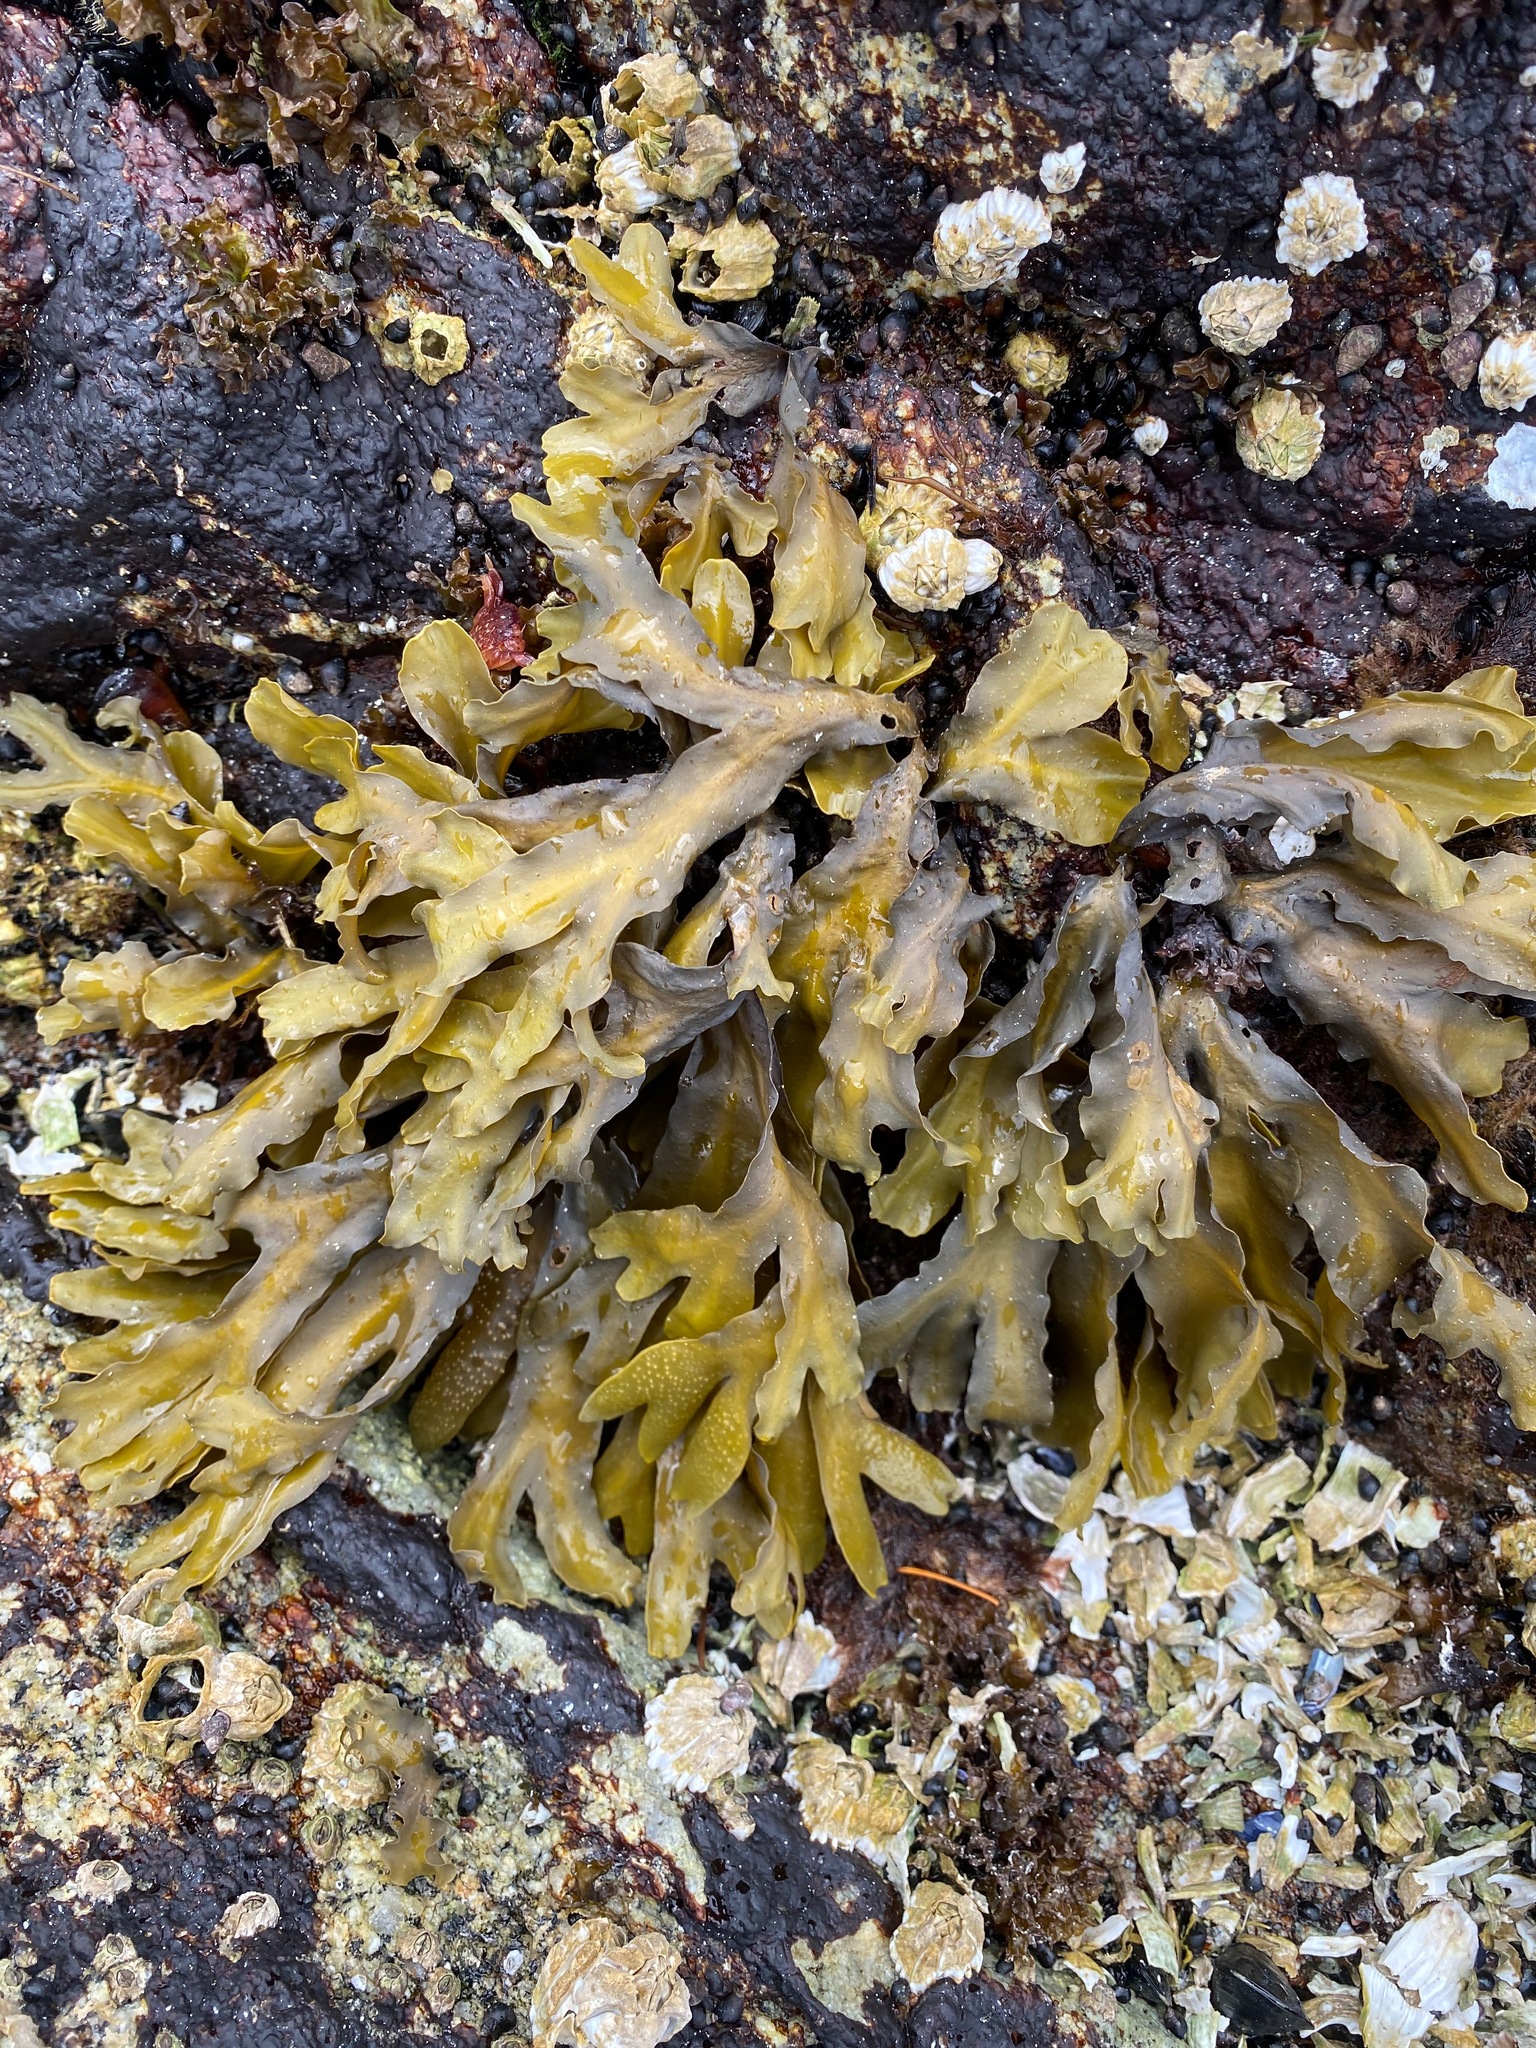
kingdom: Chromista
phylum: Ochrophyta
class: Phaeophyceae
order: Fucales
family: Fucaceae
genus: Fucus
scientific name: Fucus distichus
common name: Rockweed
